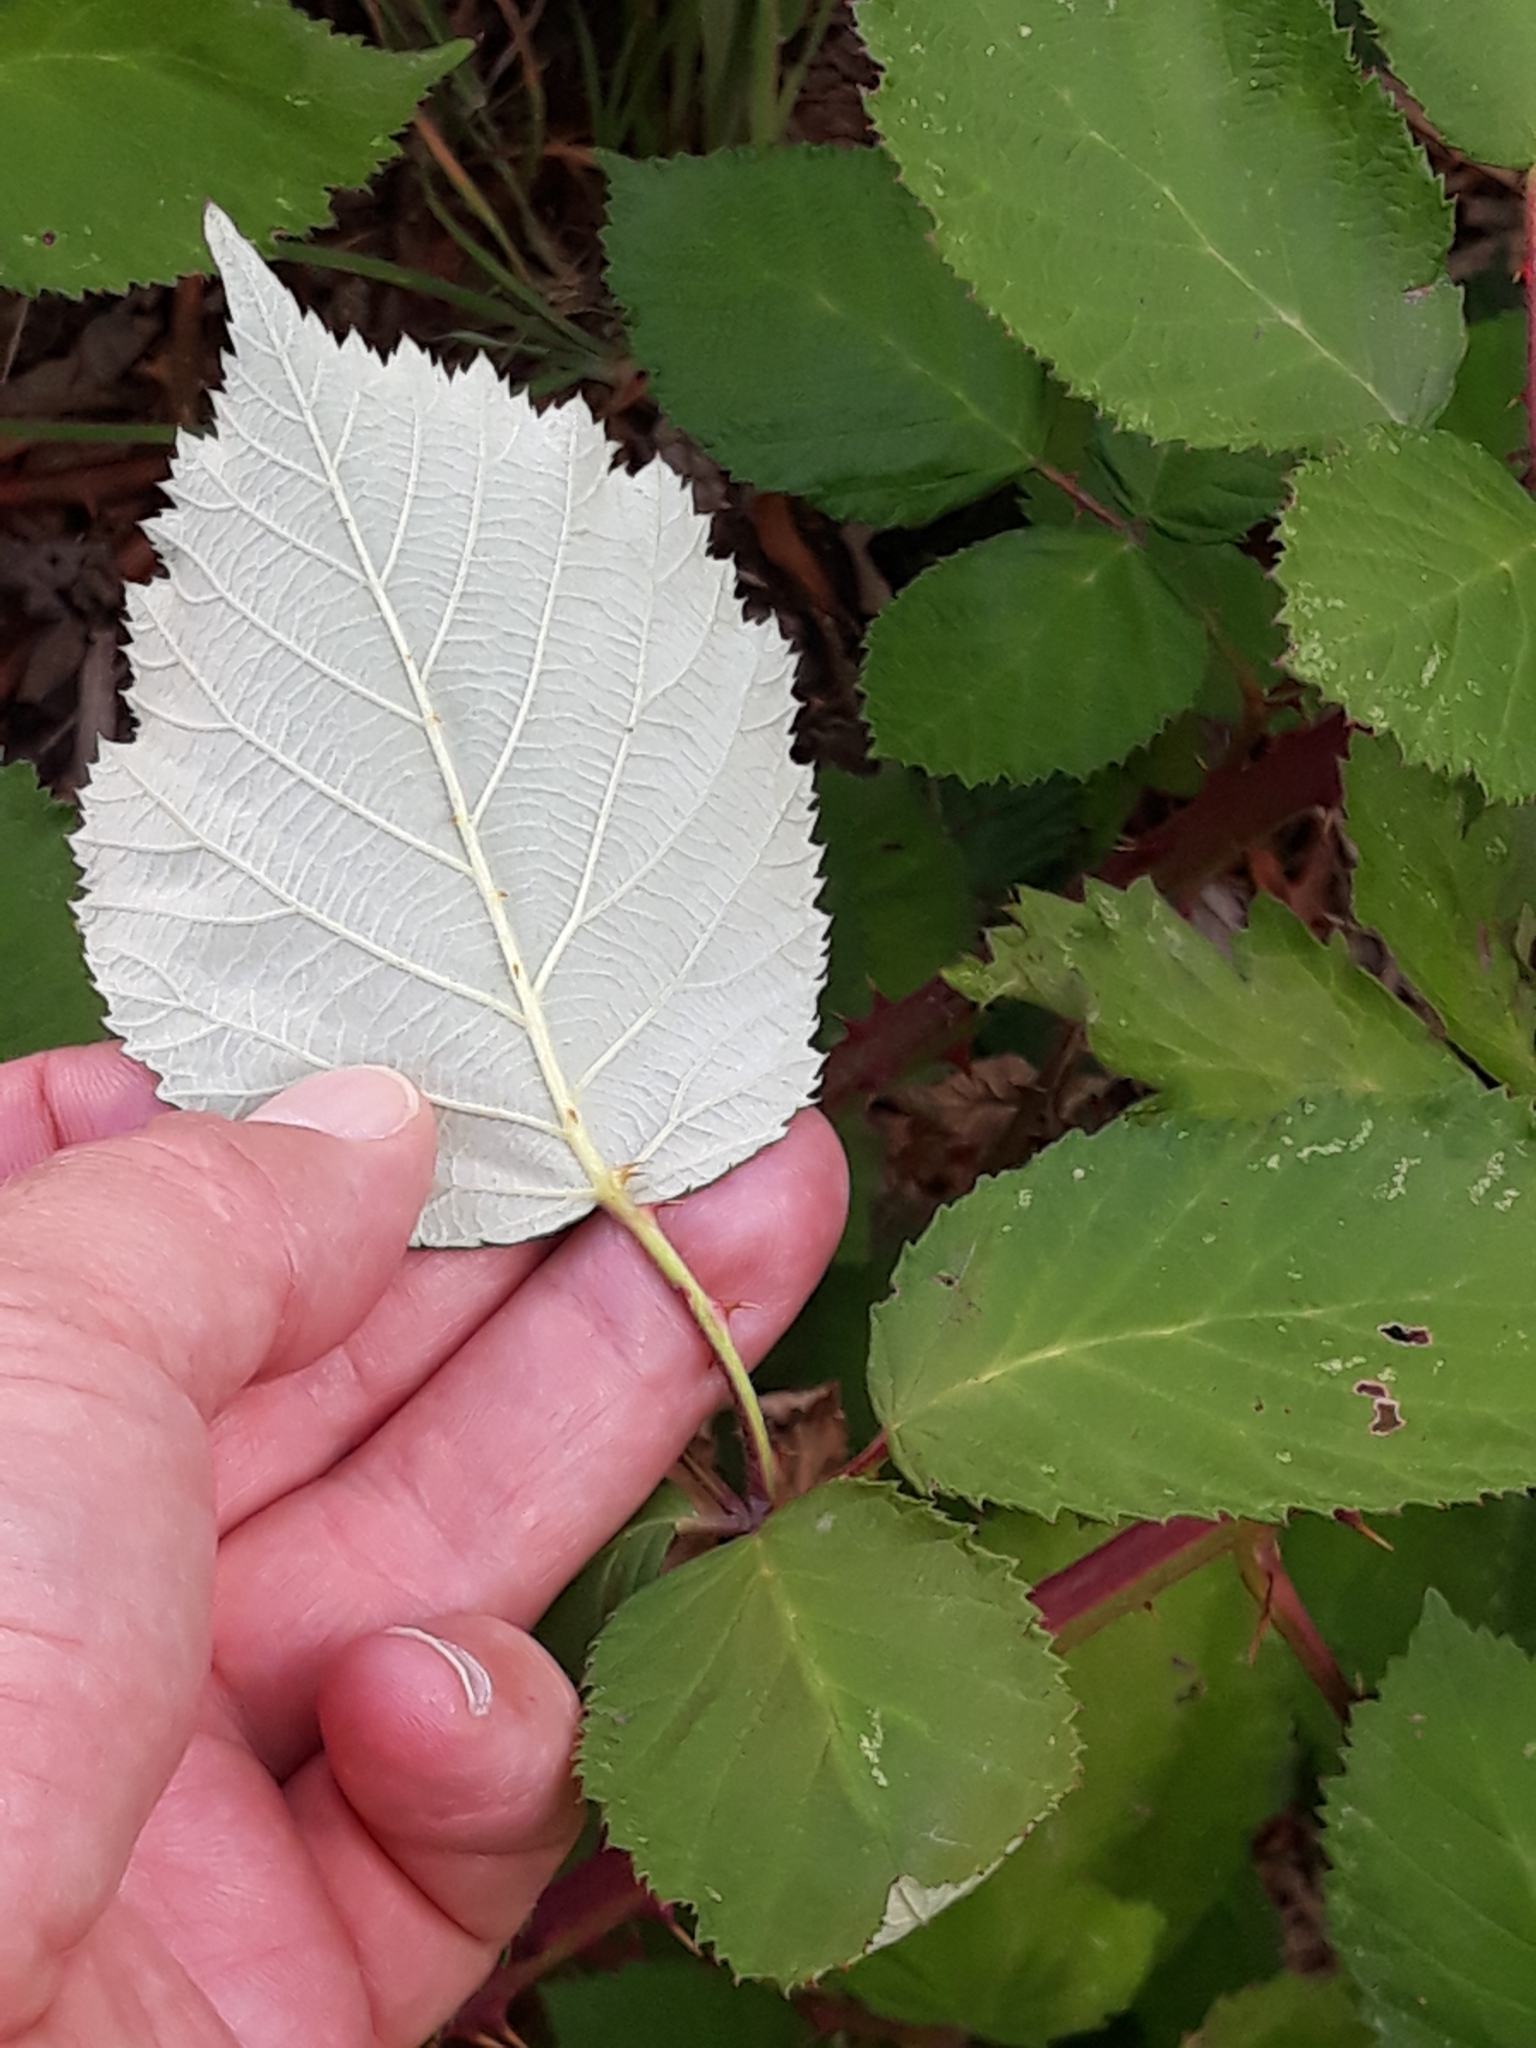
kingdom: Plantae
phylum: Tracheophyta
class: Magnoliopsida
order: Rosales
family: Rosaceae
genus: Rubus
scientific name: Rubus armeniacus
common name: Himalayan blackberry
